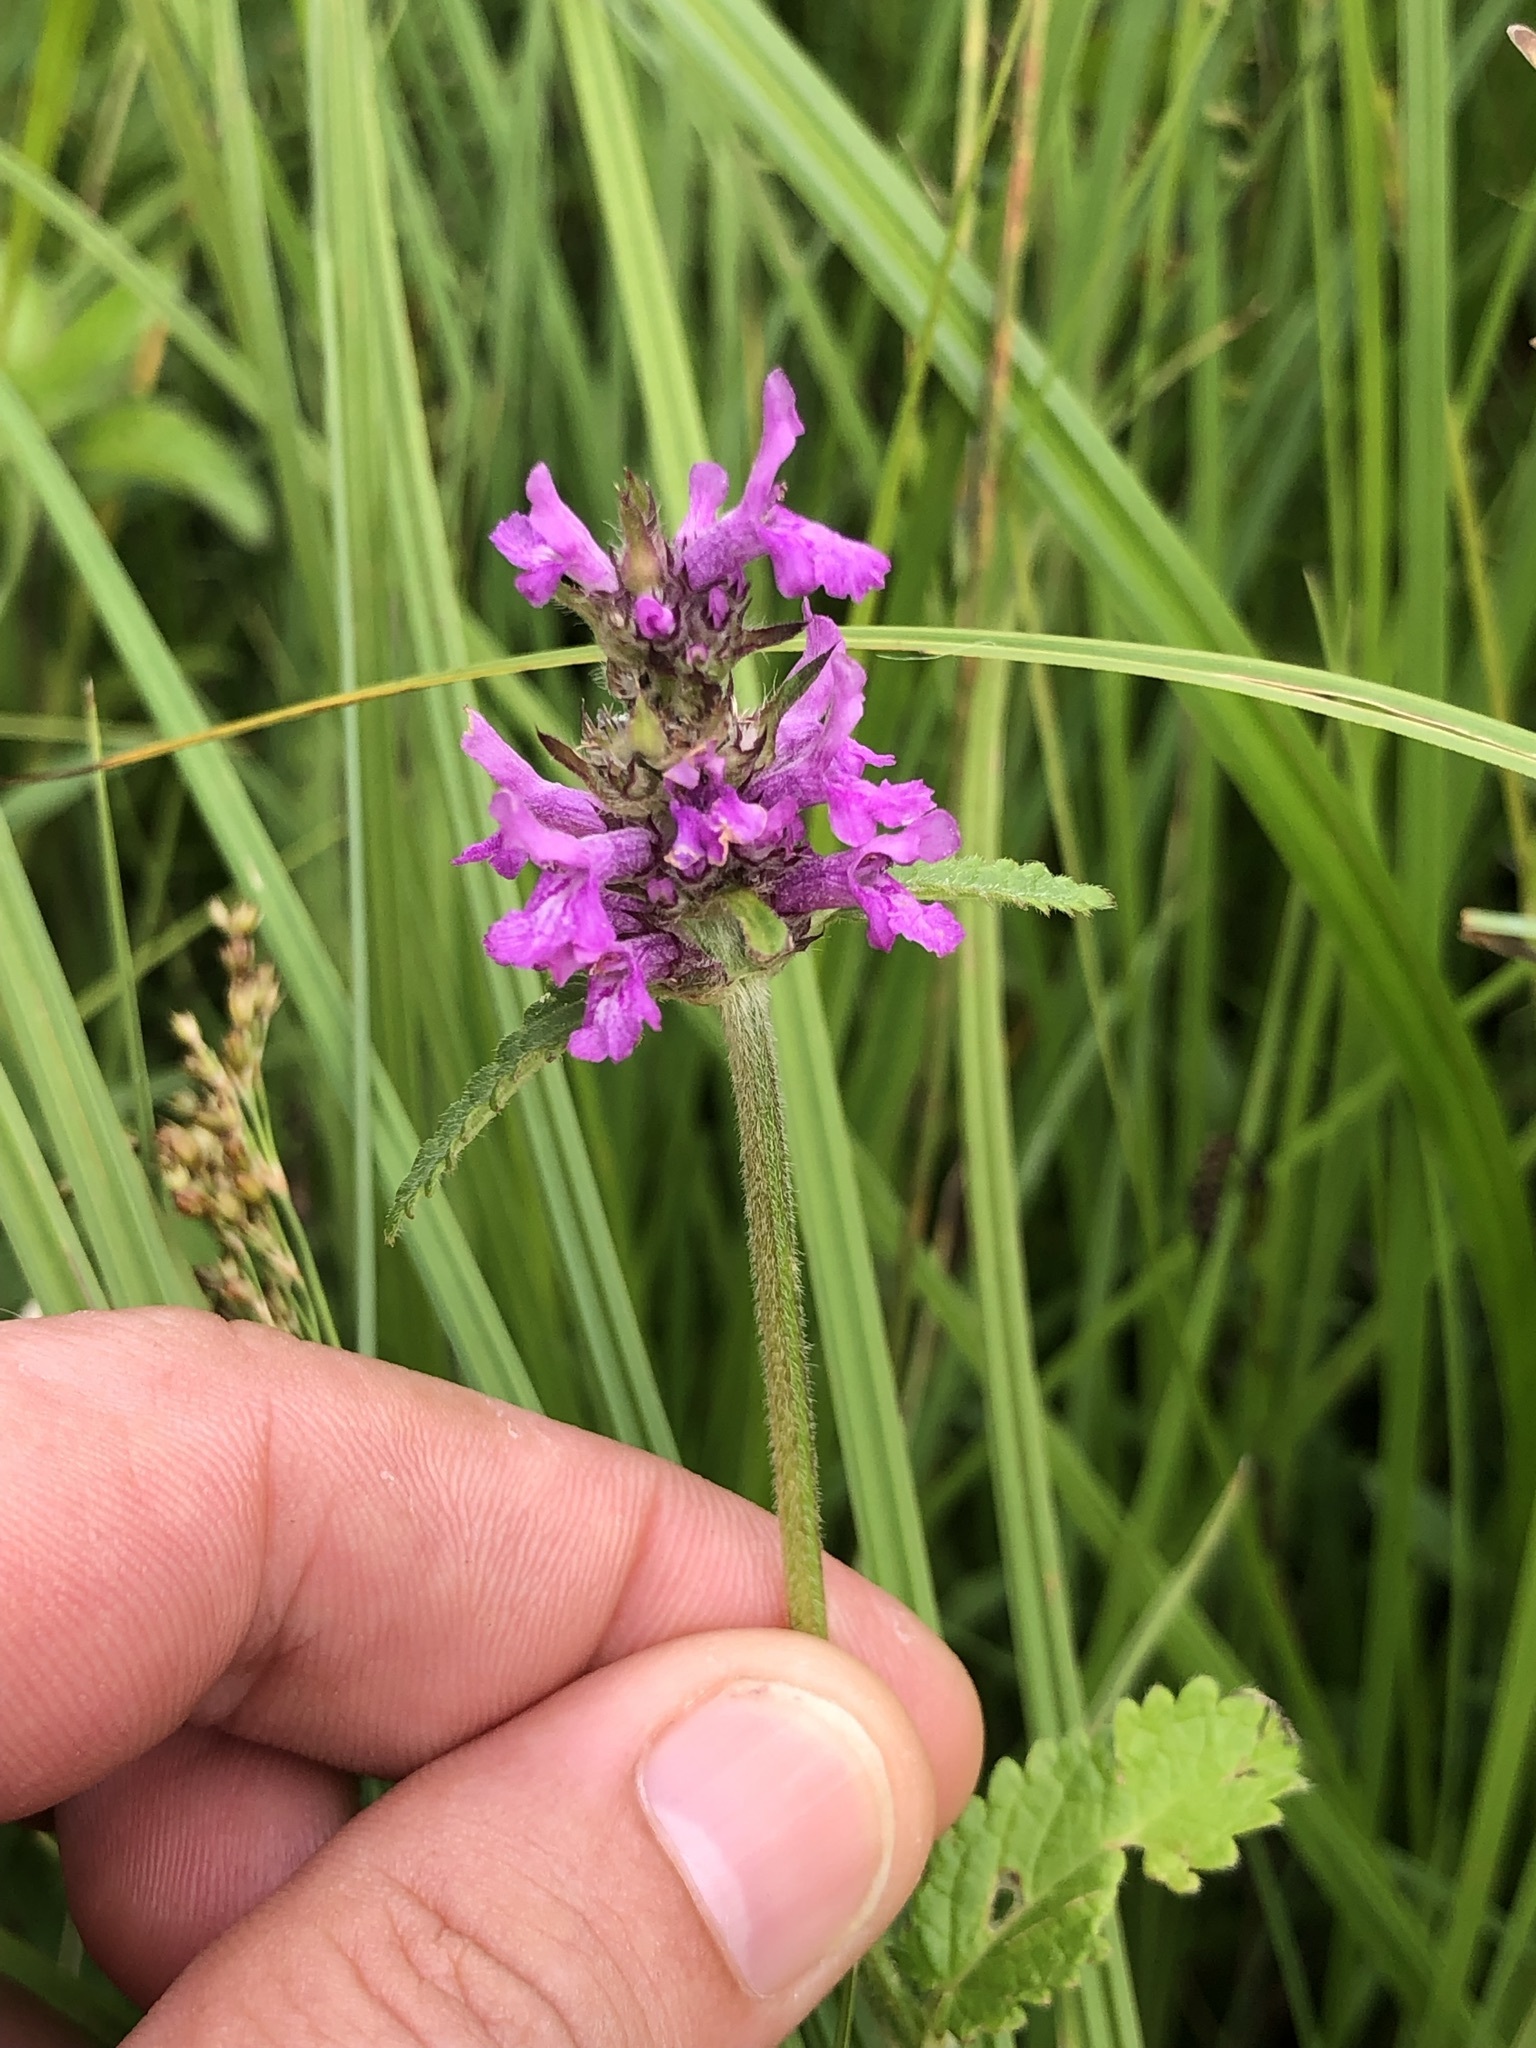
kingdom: Plantae
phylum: Tracheophyta
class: Magnoliopsida
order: Lamiales
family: Lamiaceae
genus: Betonica
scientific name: Betonica officinalis
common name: Bishop's-wort
